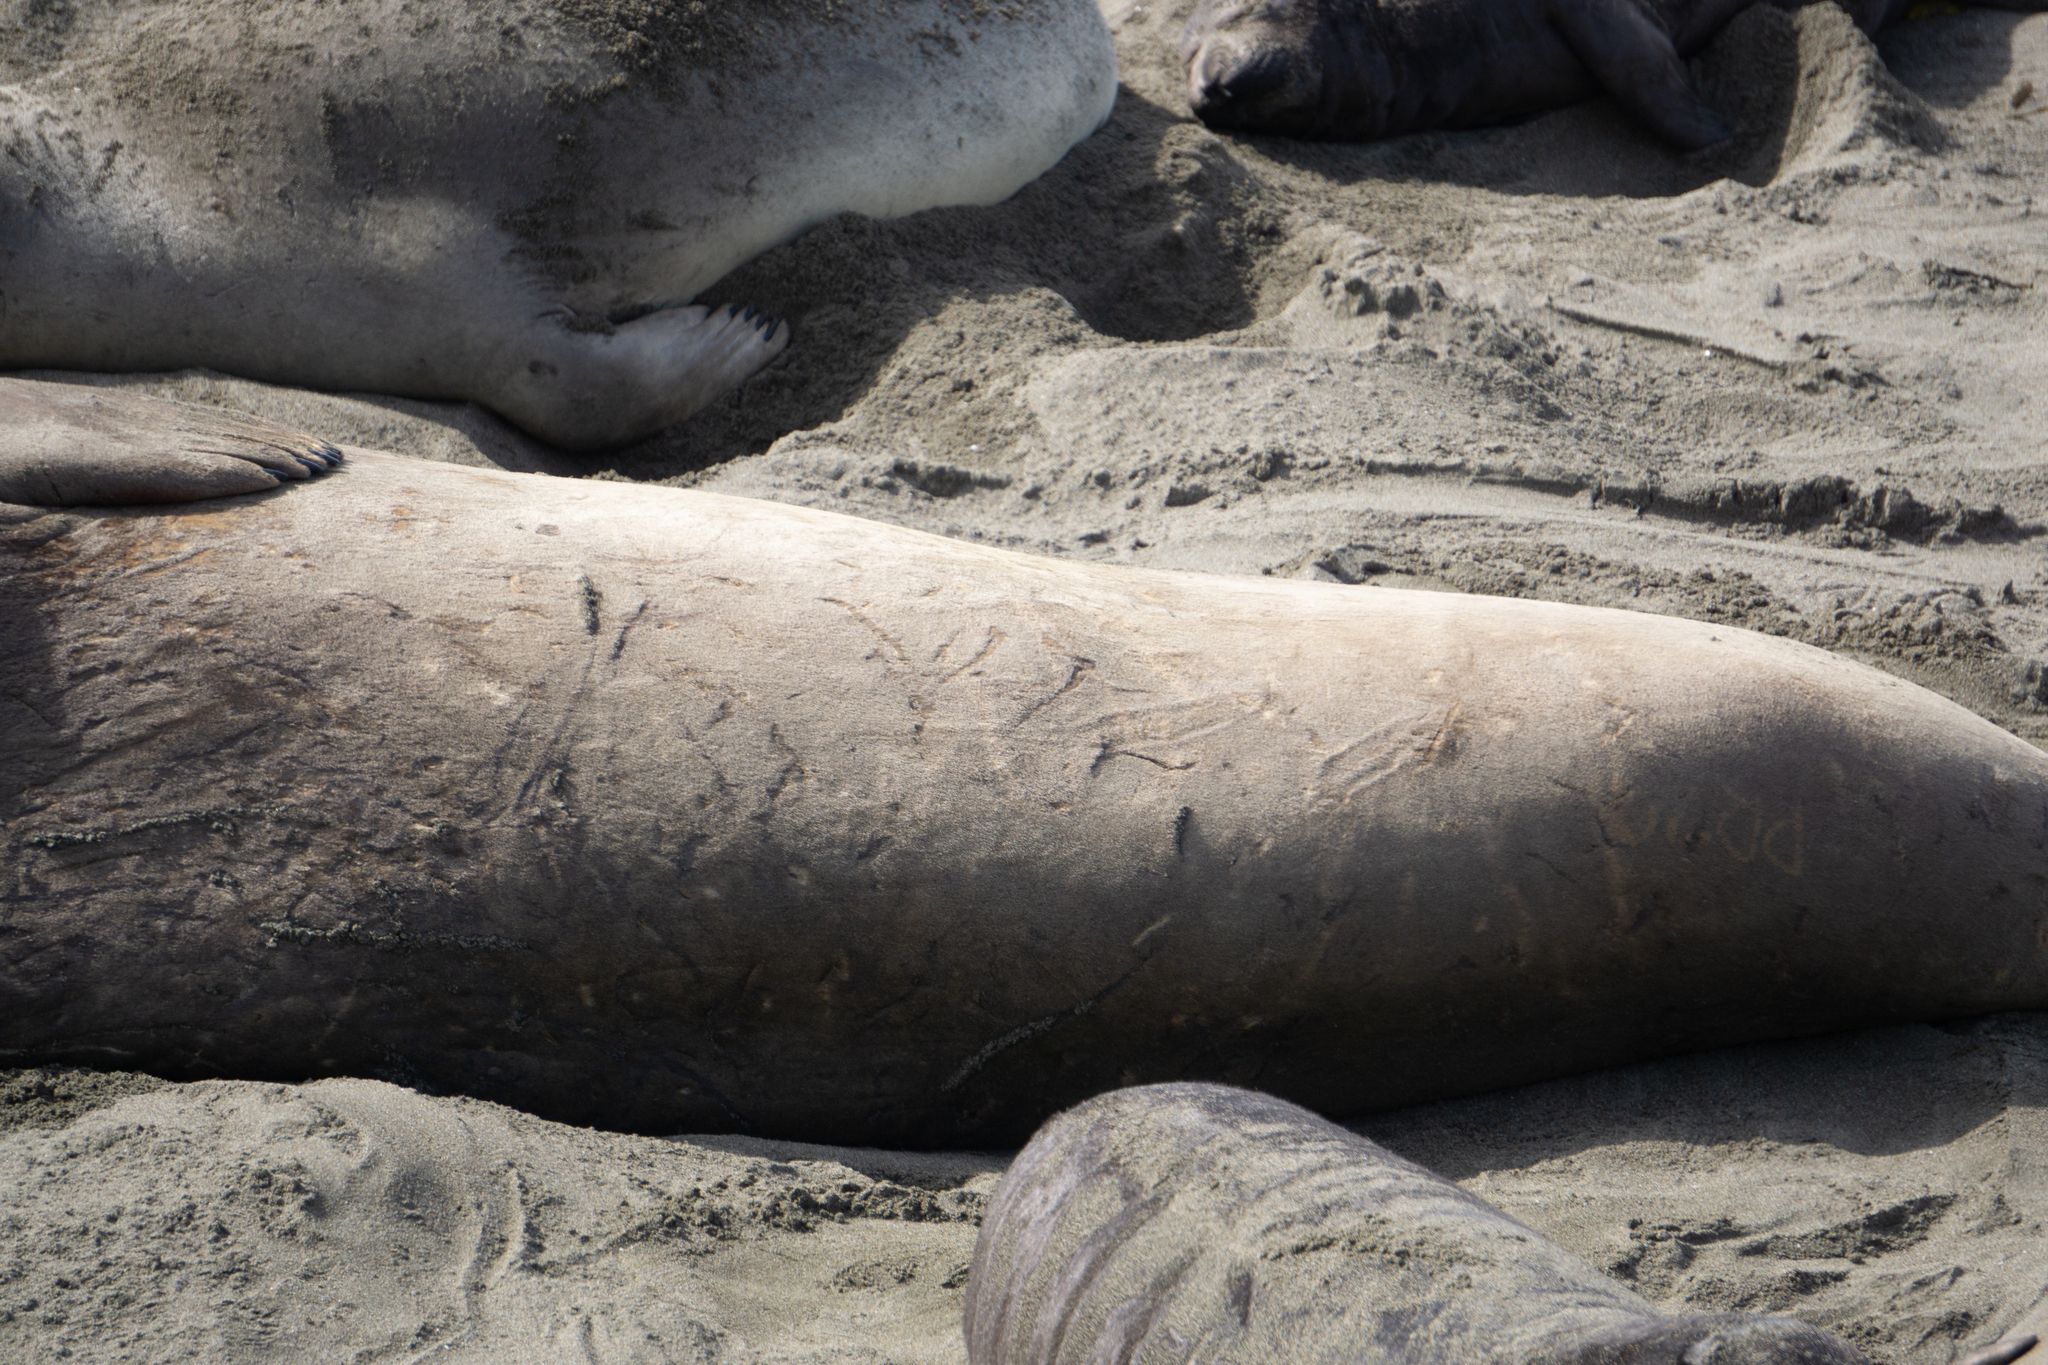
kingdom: Animalia
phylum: Chordata
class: Mammalia
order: Carnivora
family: Phocidae
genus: Mirounga
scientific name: Mirounga angustirostris
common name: Northern elephant seal
